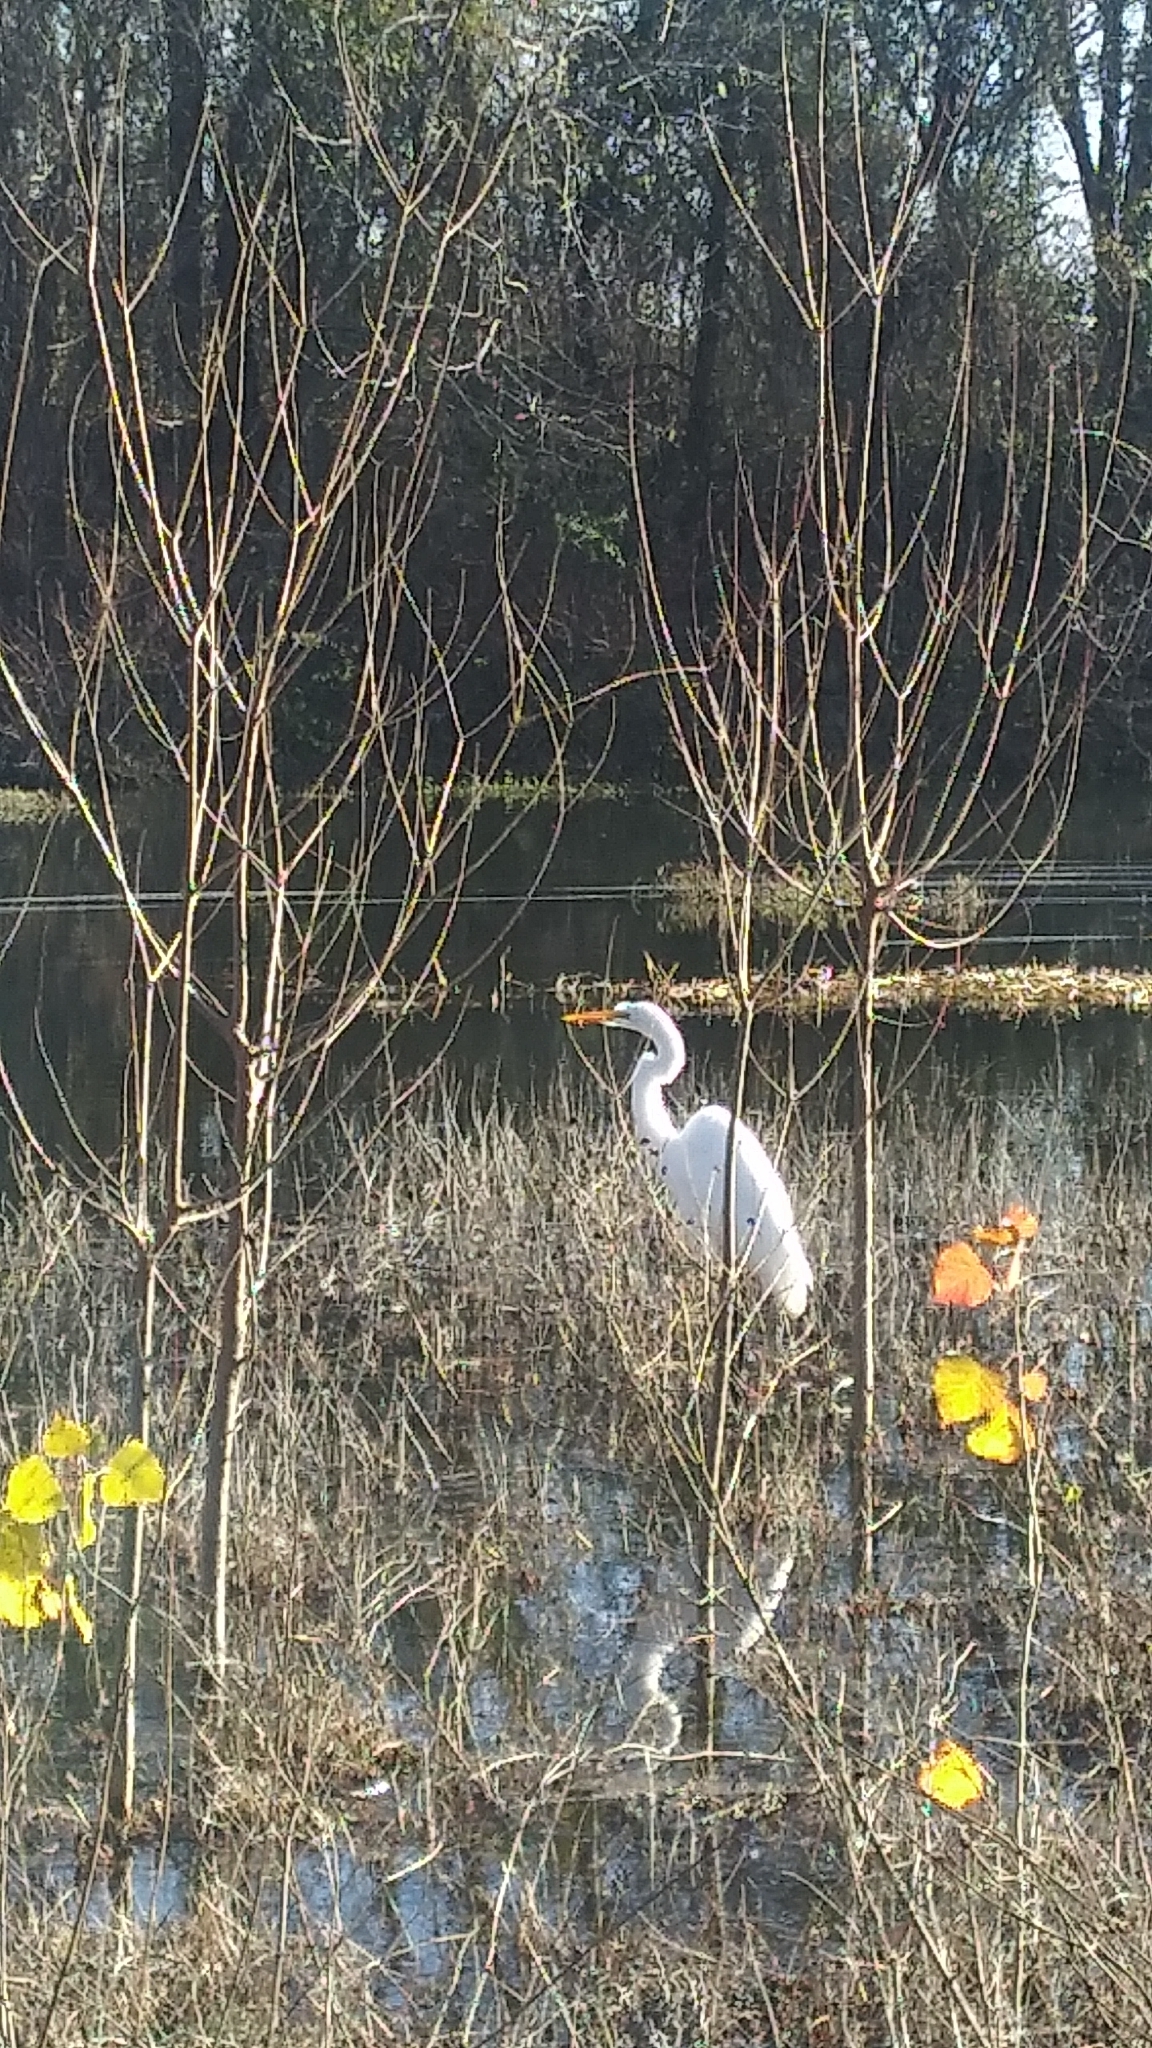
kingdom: Animalia
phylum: Chordata
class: Aves
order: Pelecaniformes
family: Ardeidae
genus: Ardea
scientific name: Ardea alba
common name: Great egret
